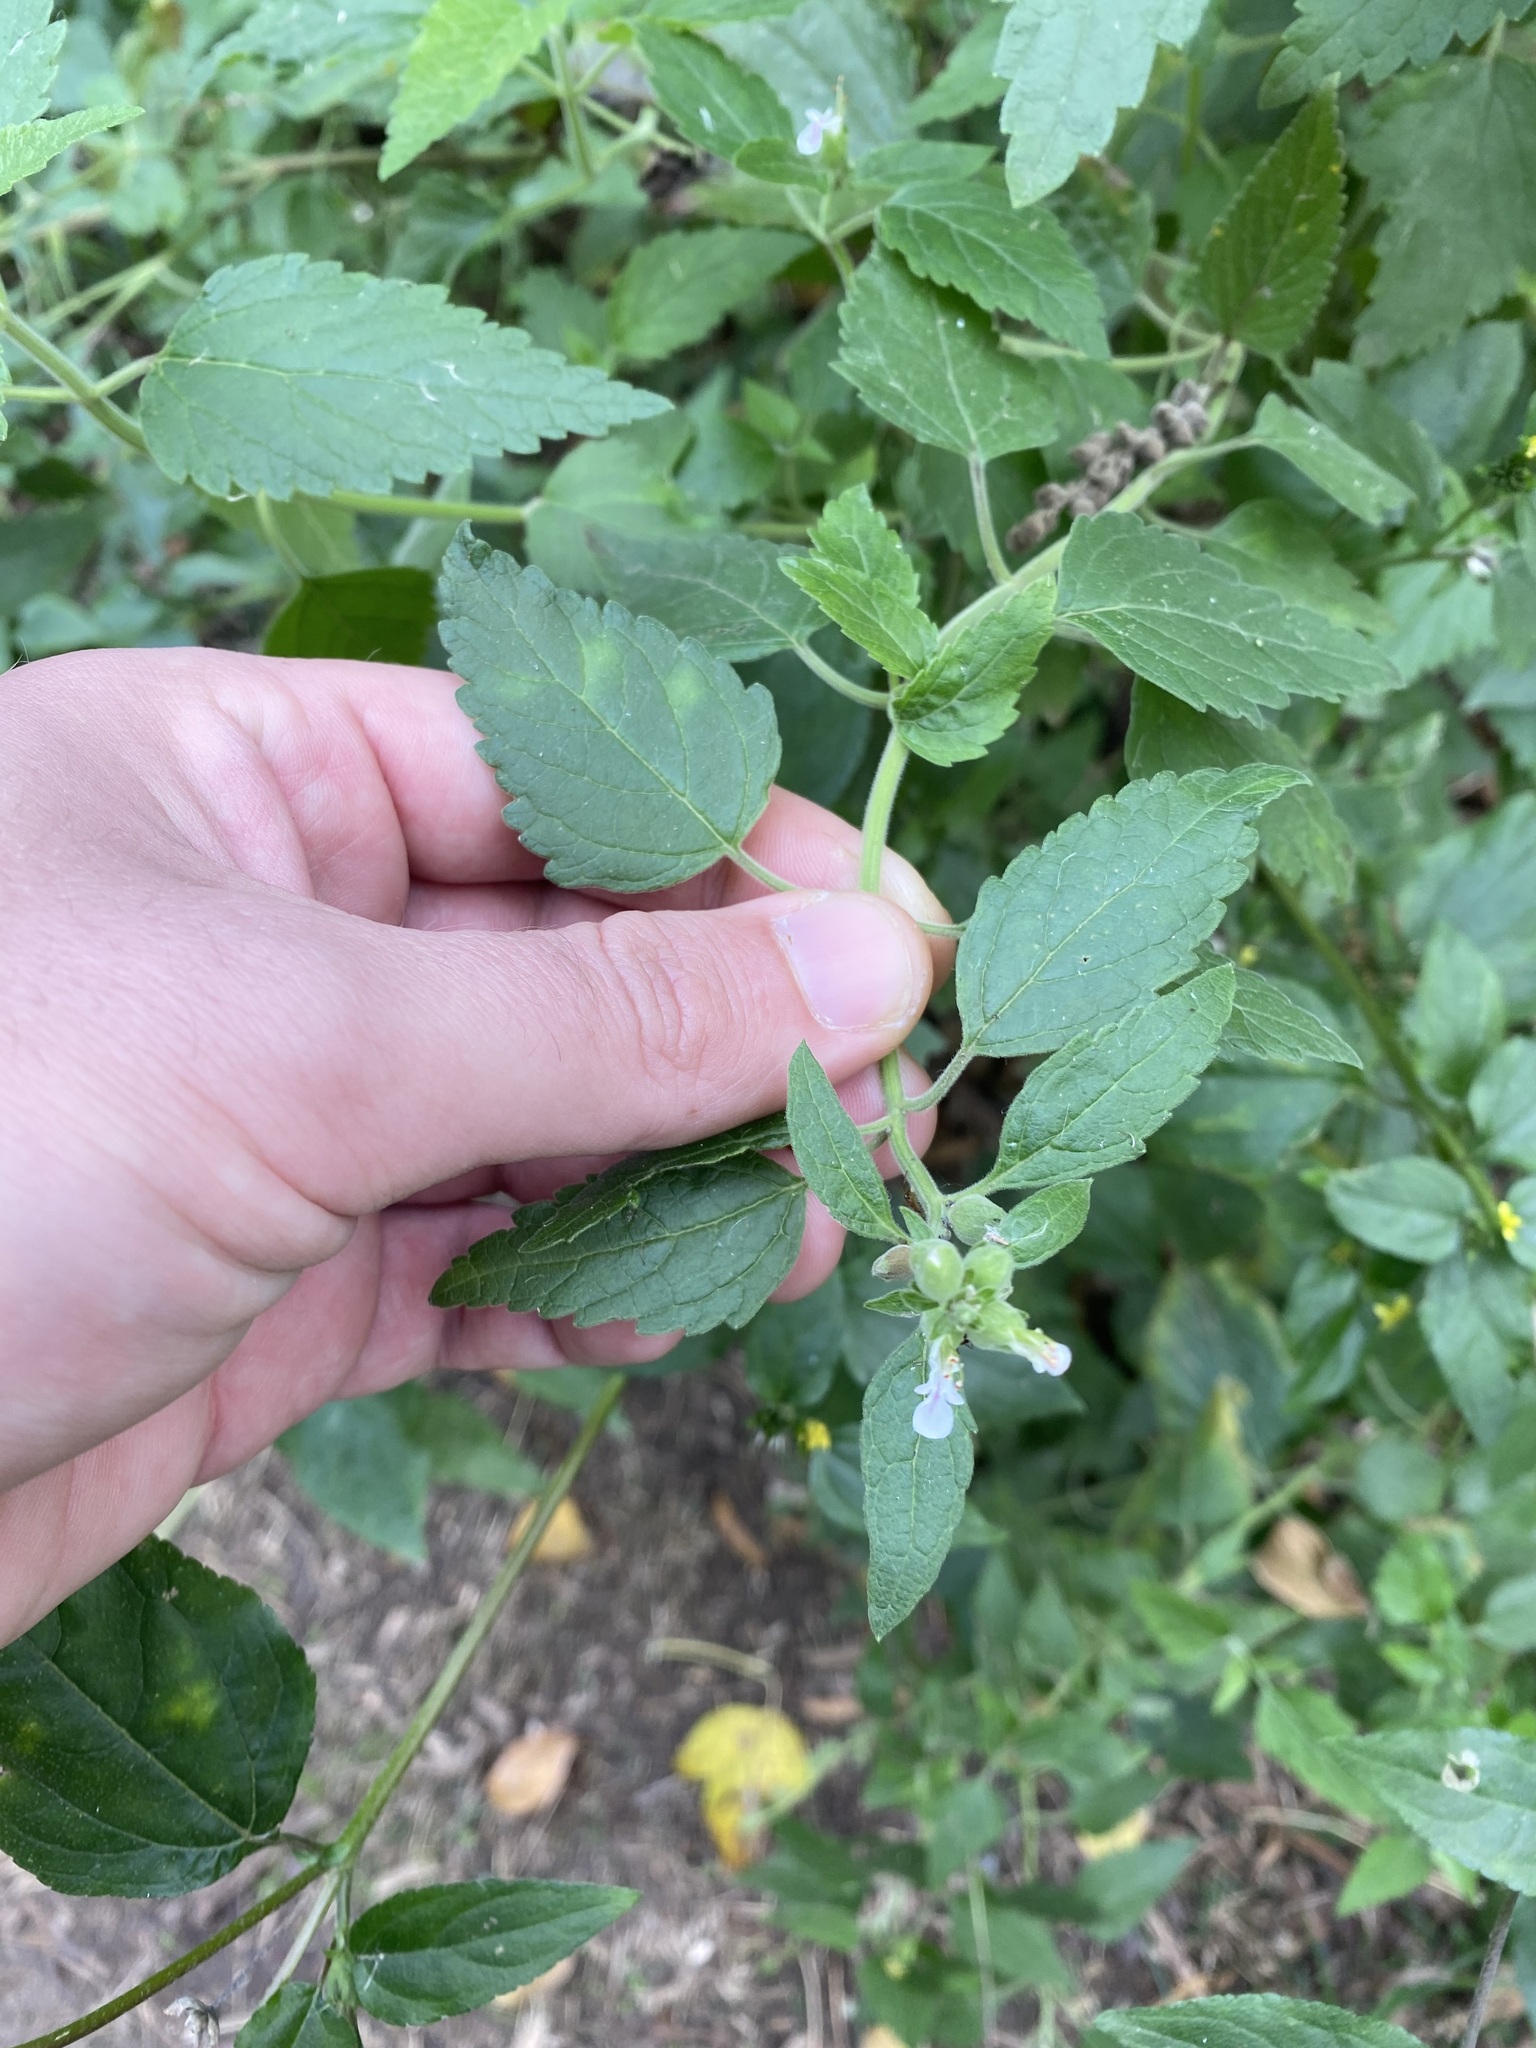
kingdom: Plantae
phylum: Tracheophyta
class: Magnoliopsida
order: Lamiales
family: Lamiaceae
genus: Teucrium
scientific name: Teucrium vesicarium
